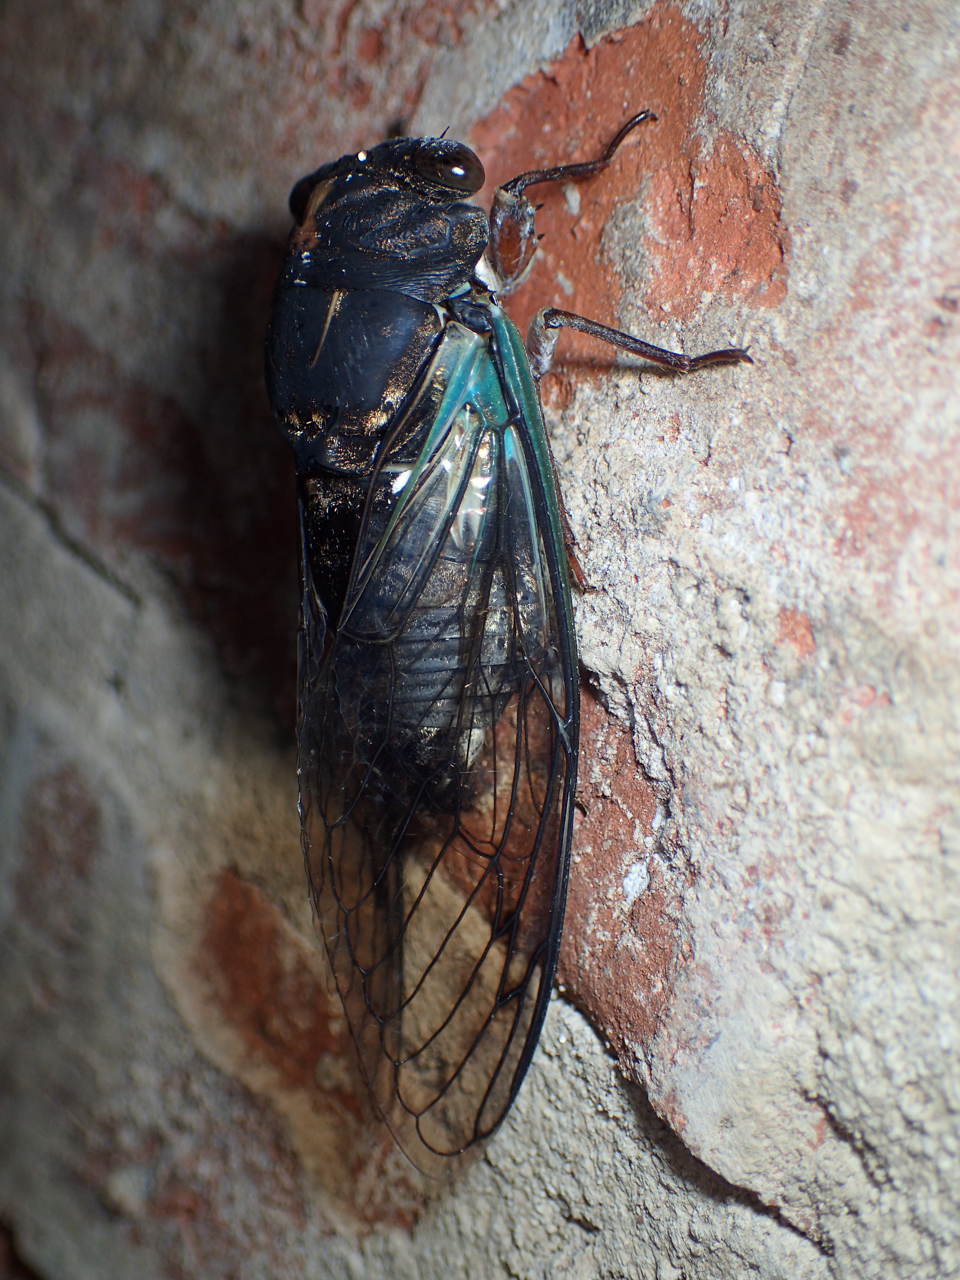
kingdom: Animalia
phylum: Arthropoda
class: Insecta
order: Hemiptera
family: Cicadidae
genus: Neotibicen
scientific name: Neotibicen lyricen
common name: Lyric cicada
